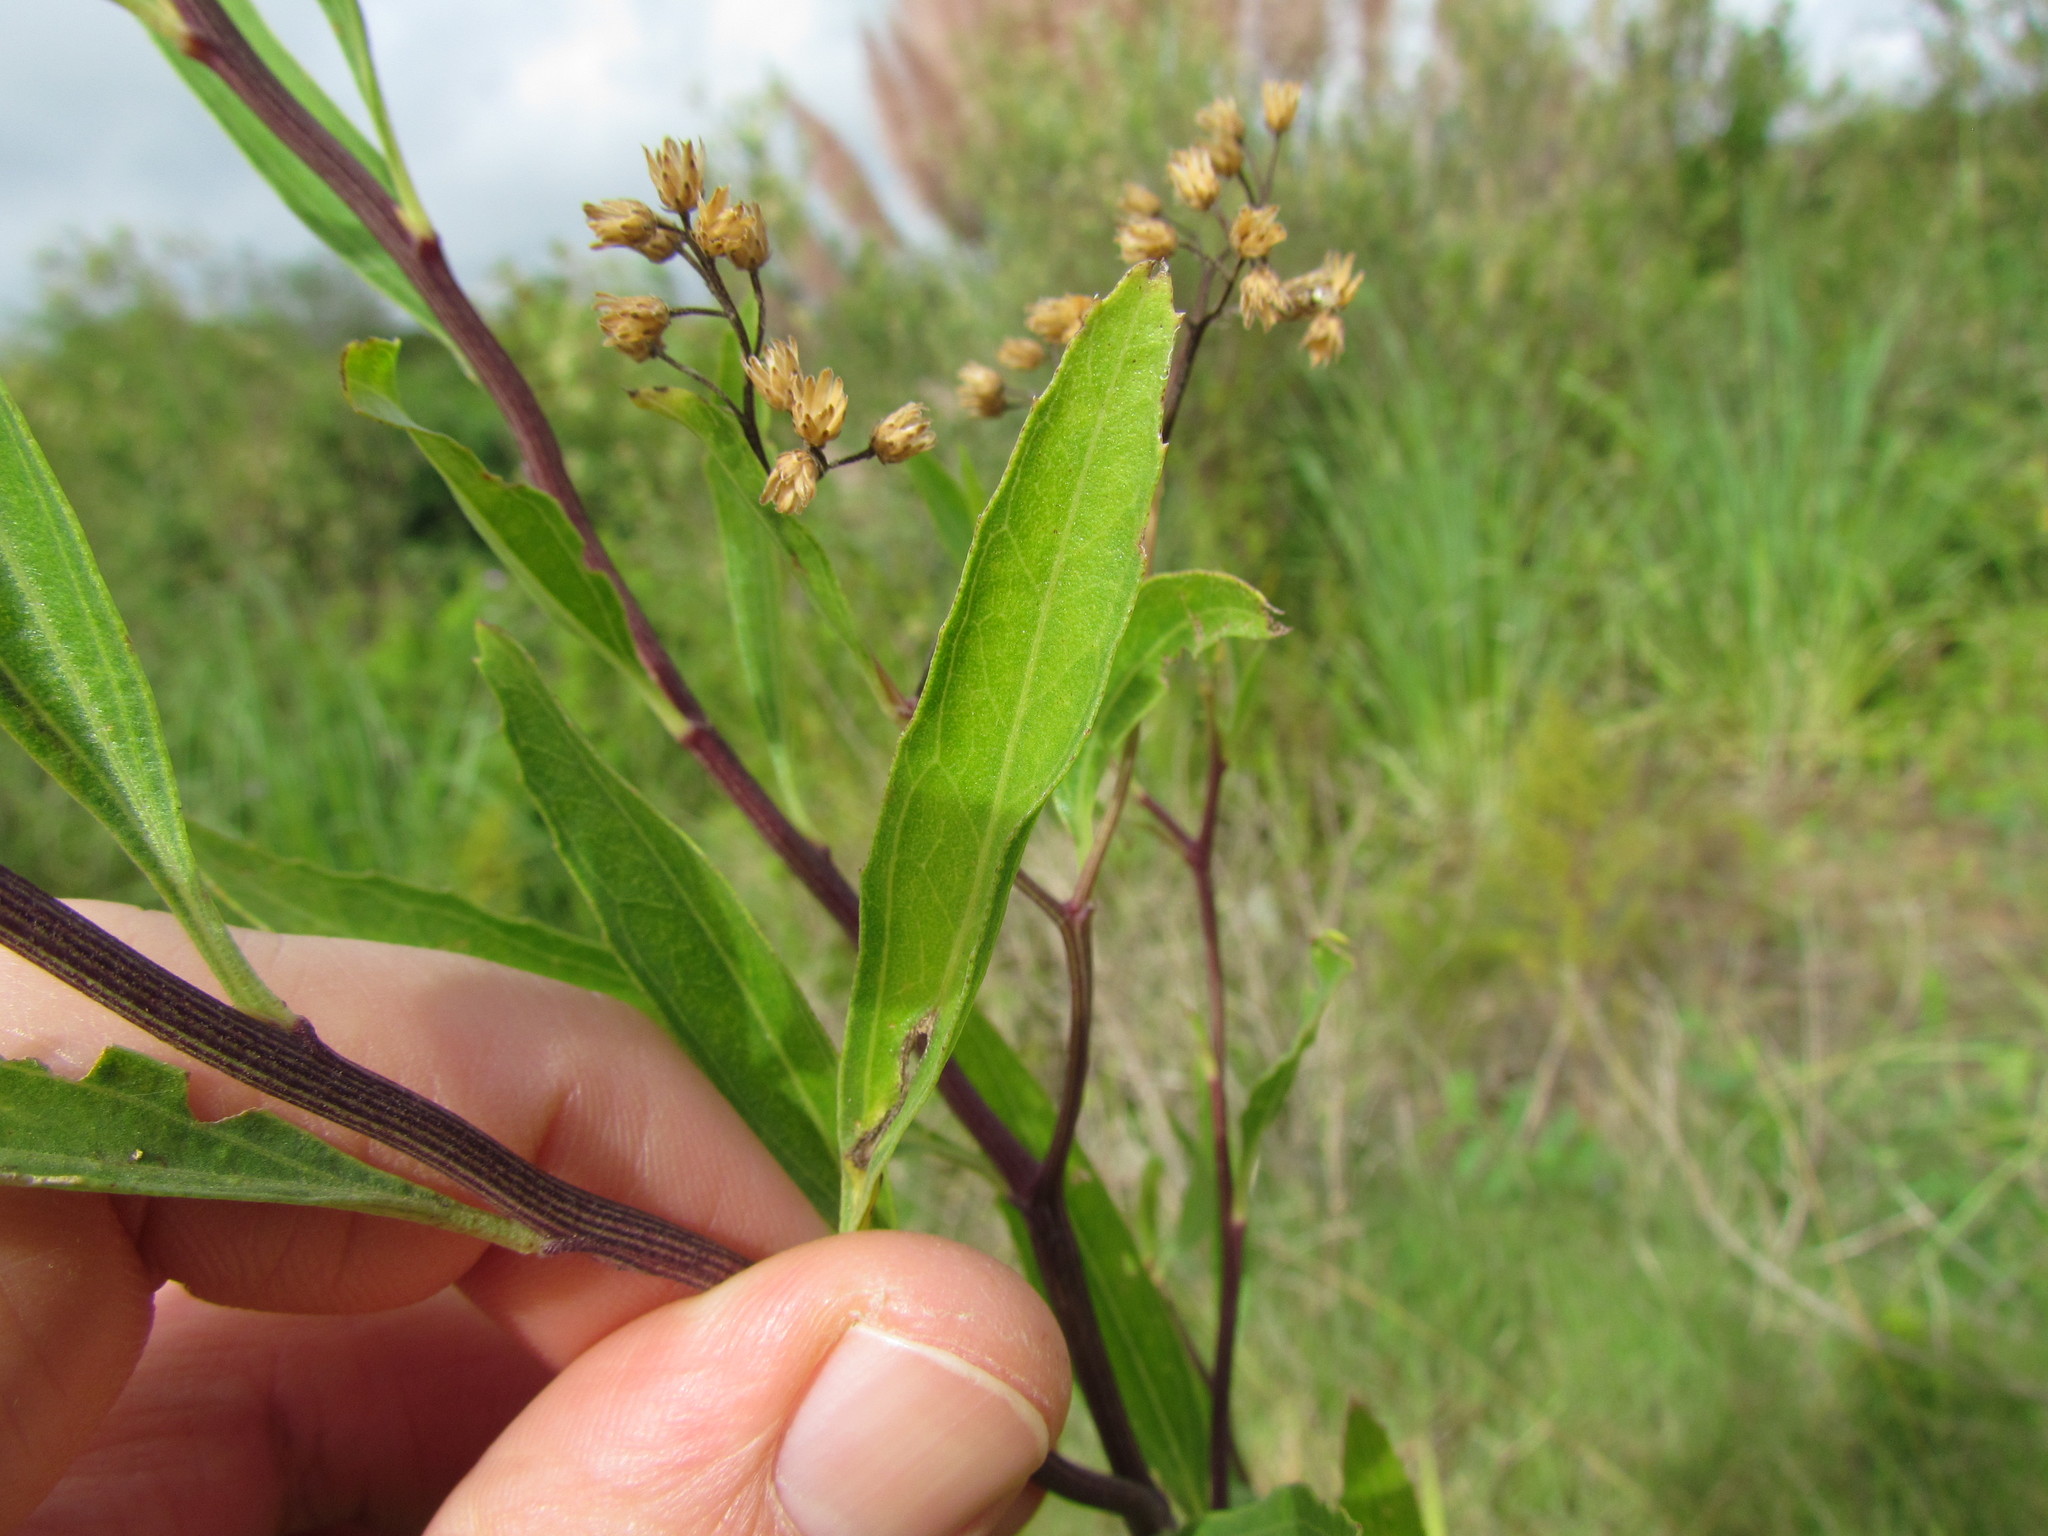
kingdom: Plantae
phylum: Tracheophyta
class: Magnoliopsida
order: Asterales
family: Asteraceae
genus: Baccharis
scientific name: Baccharis salicifolia
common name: Sticky baccharis
